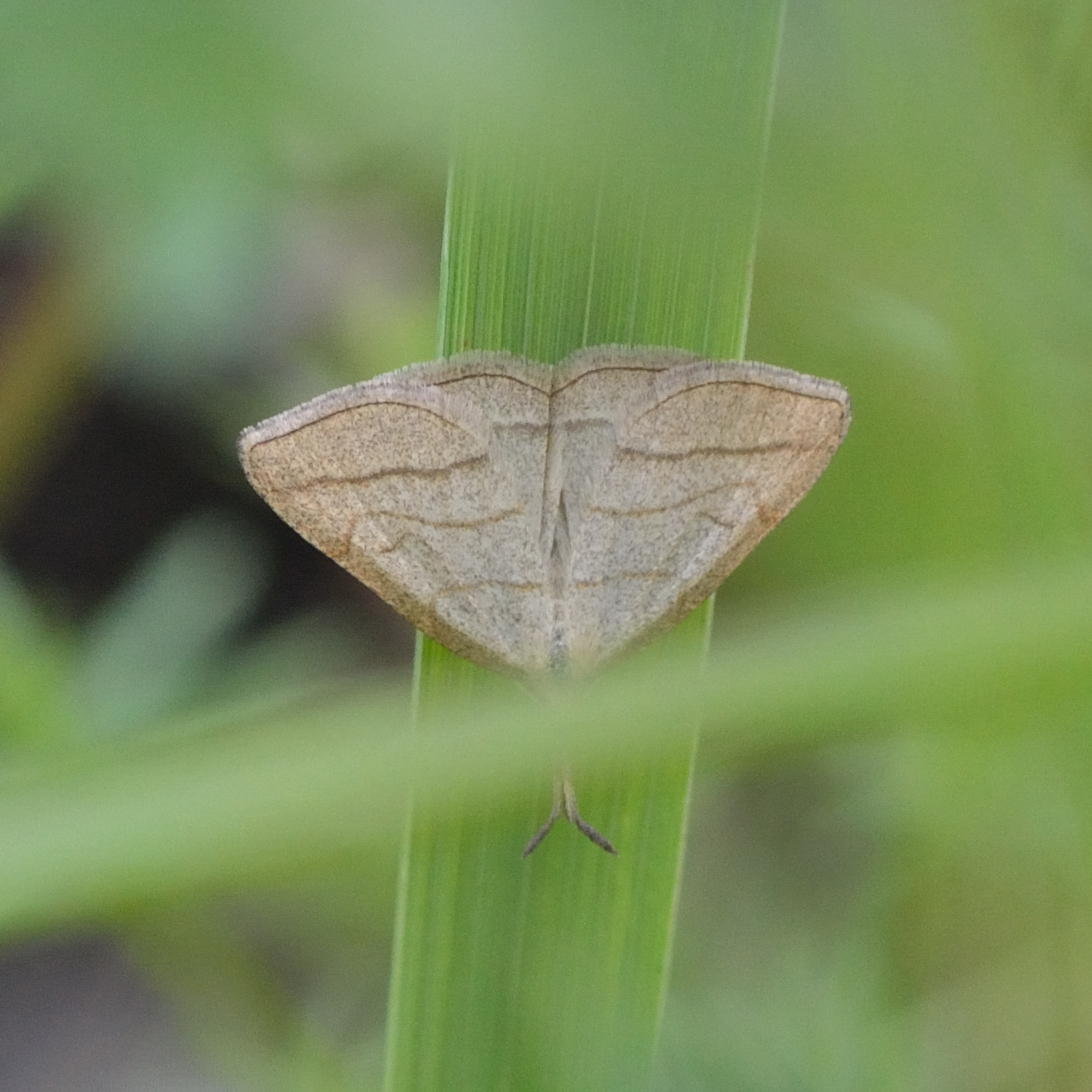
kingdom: Animalia
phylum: Arthropoda
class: Insecta
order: Lepidoptera
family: Erebidae
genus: Polypogon
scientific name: Polypogon tentacularia
